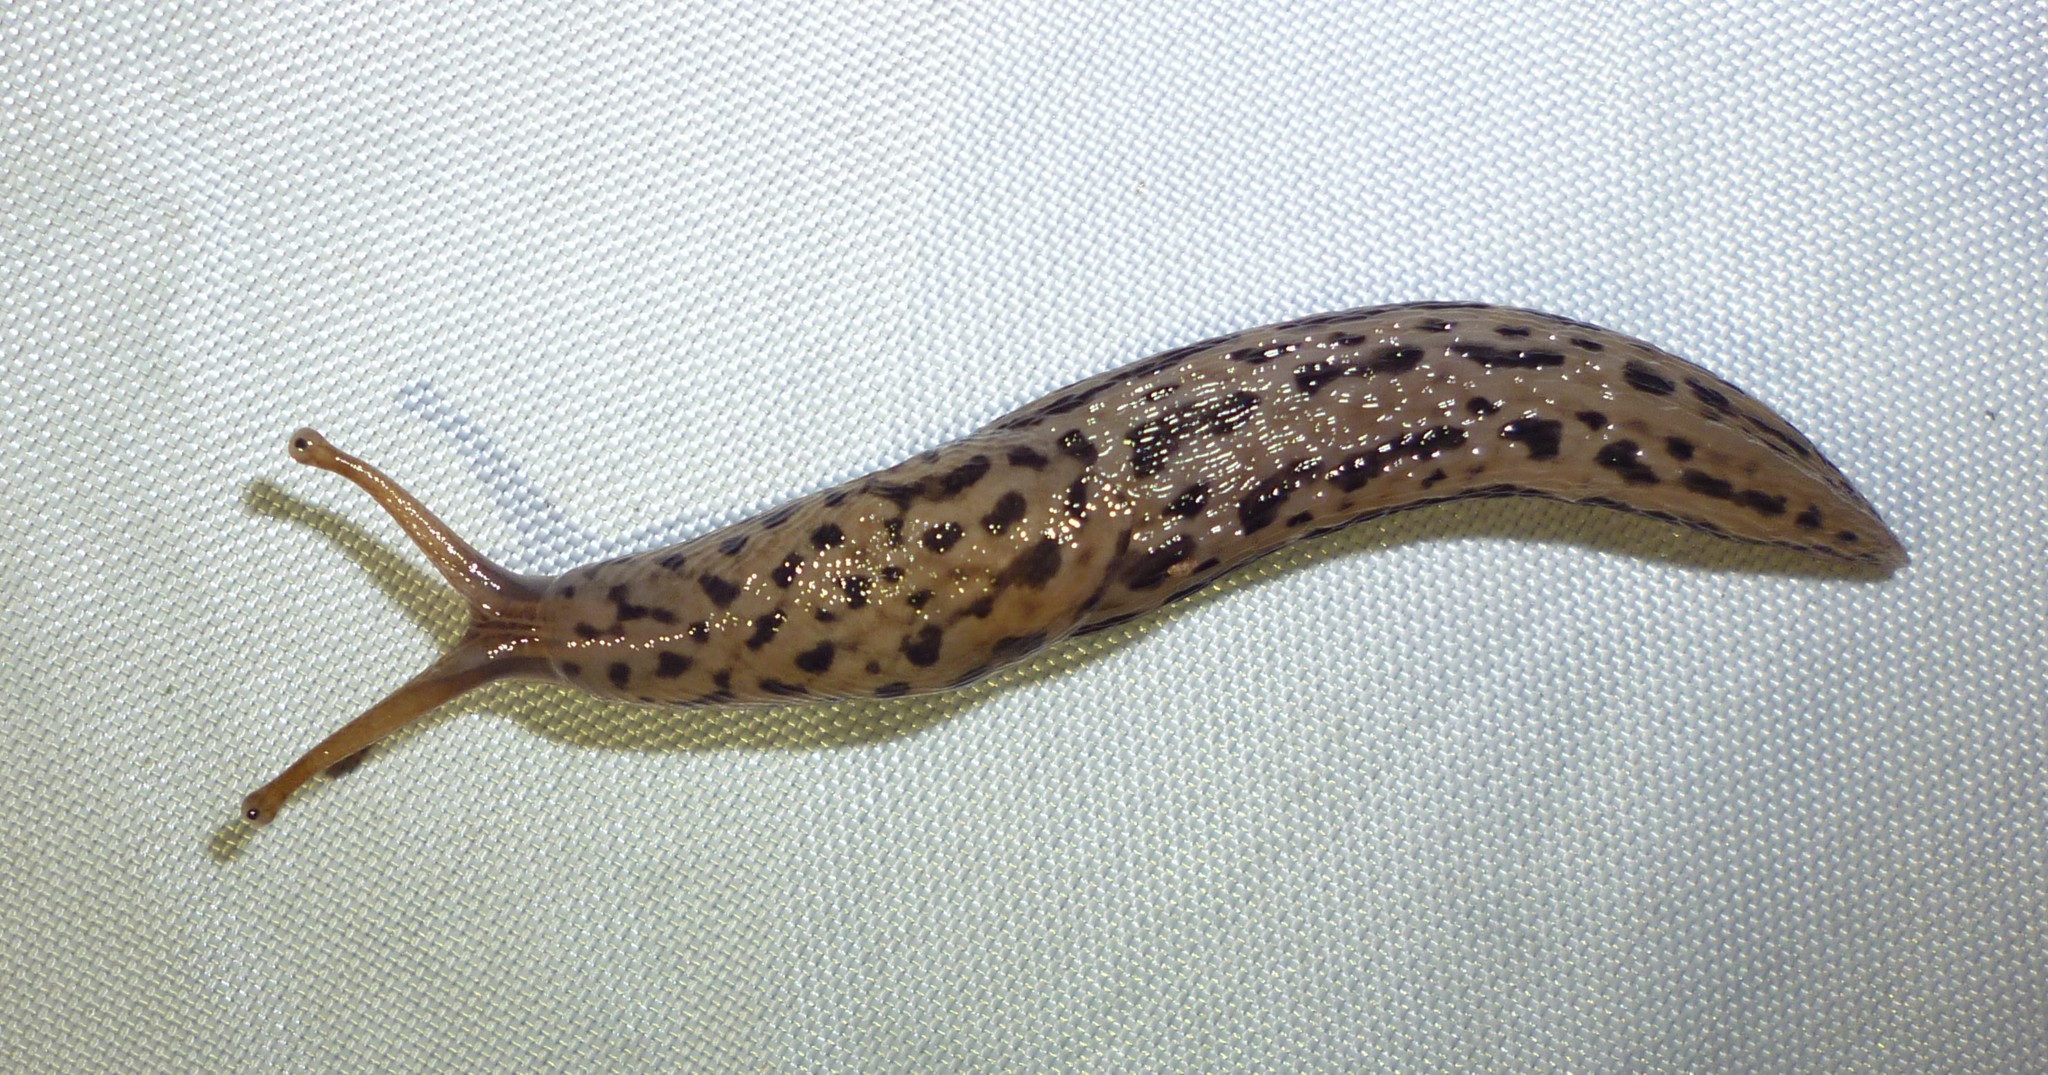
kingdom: Animalia
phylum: Mollusca
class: Gastropoda
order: Stylommatophora
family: Limacidae
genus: Limax
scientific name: Limax maximus
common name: Great grey slug
